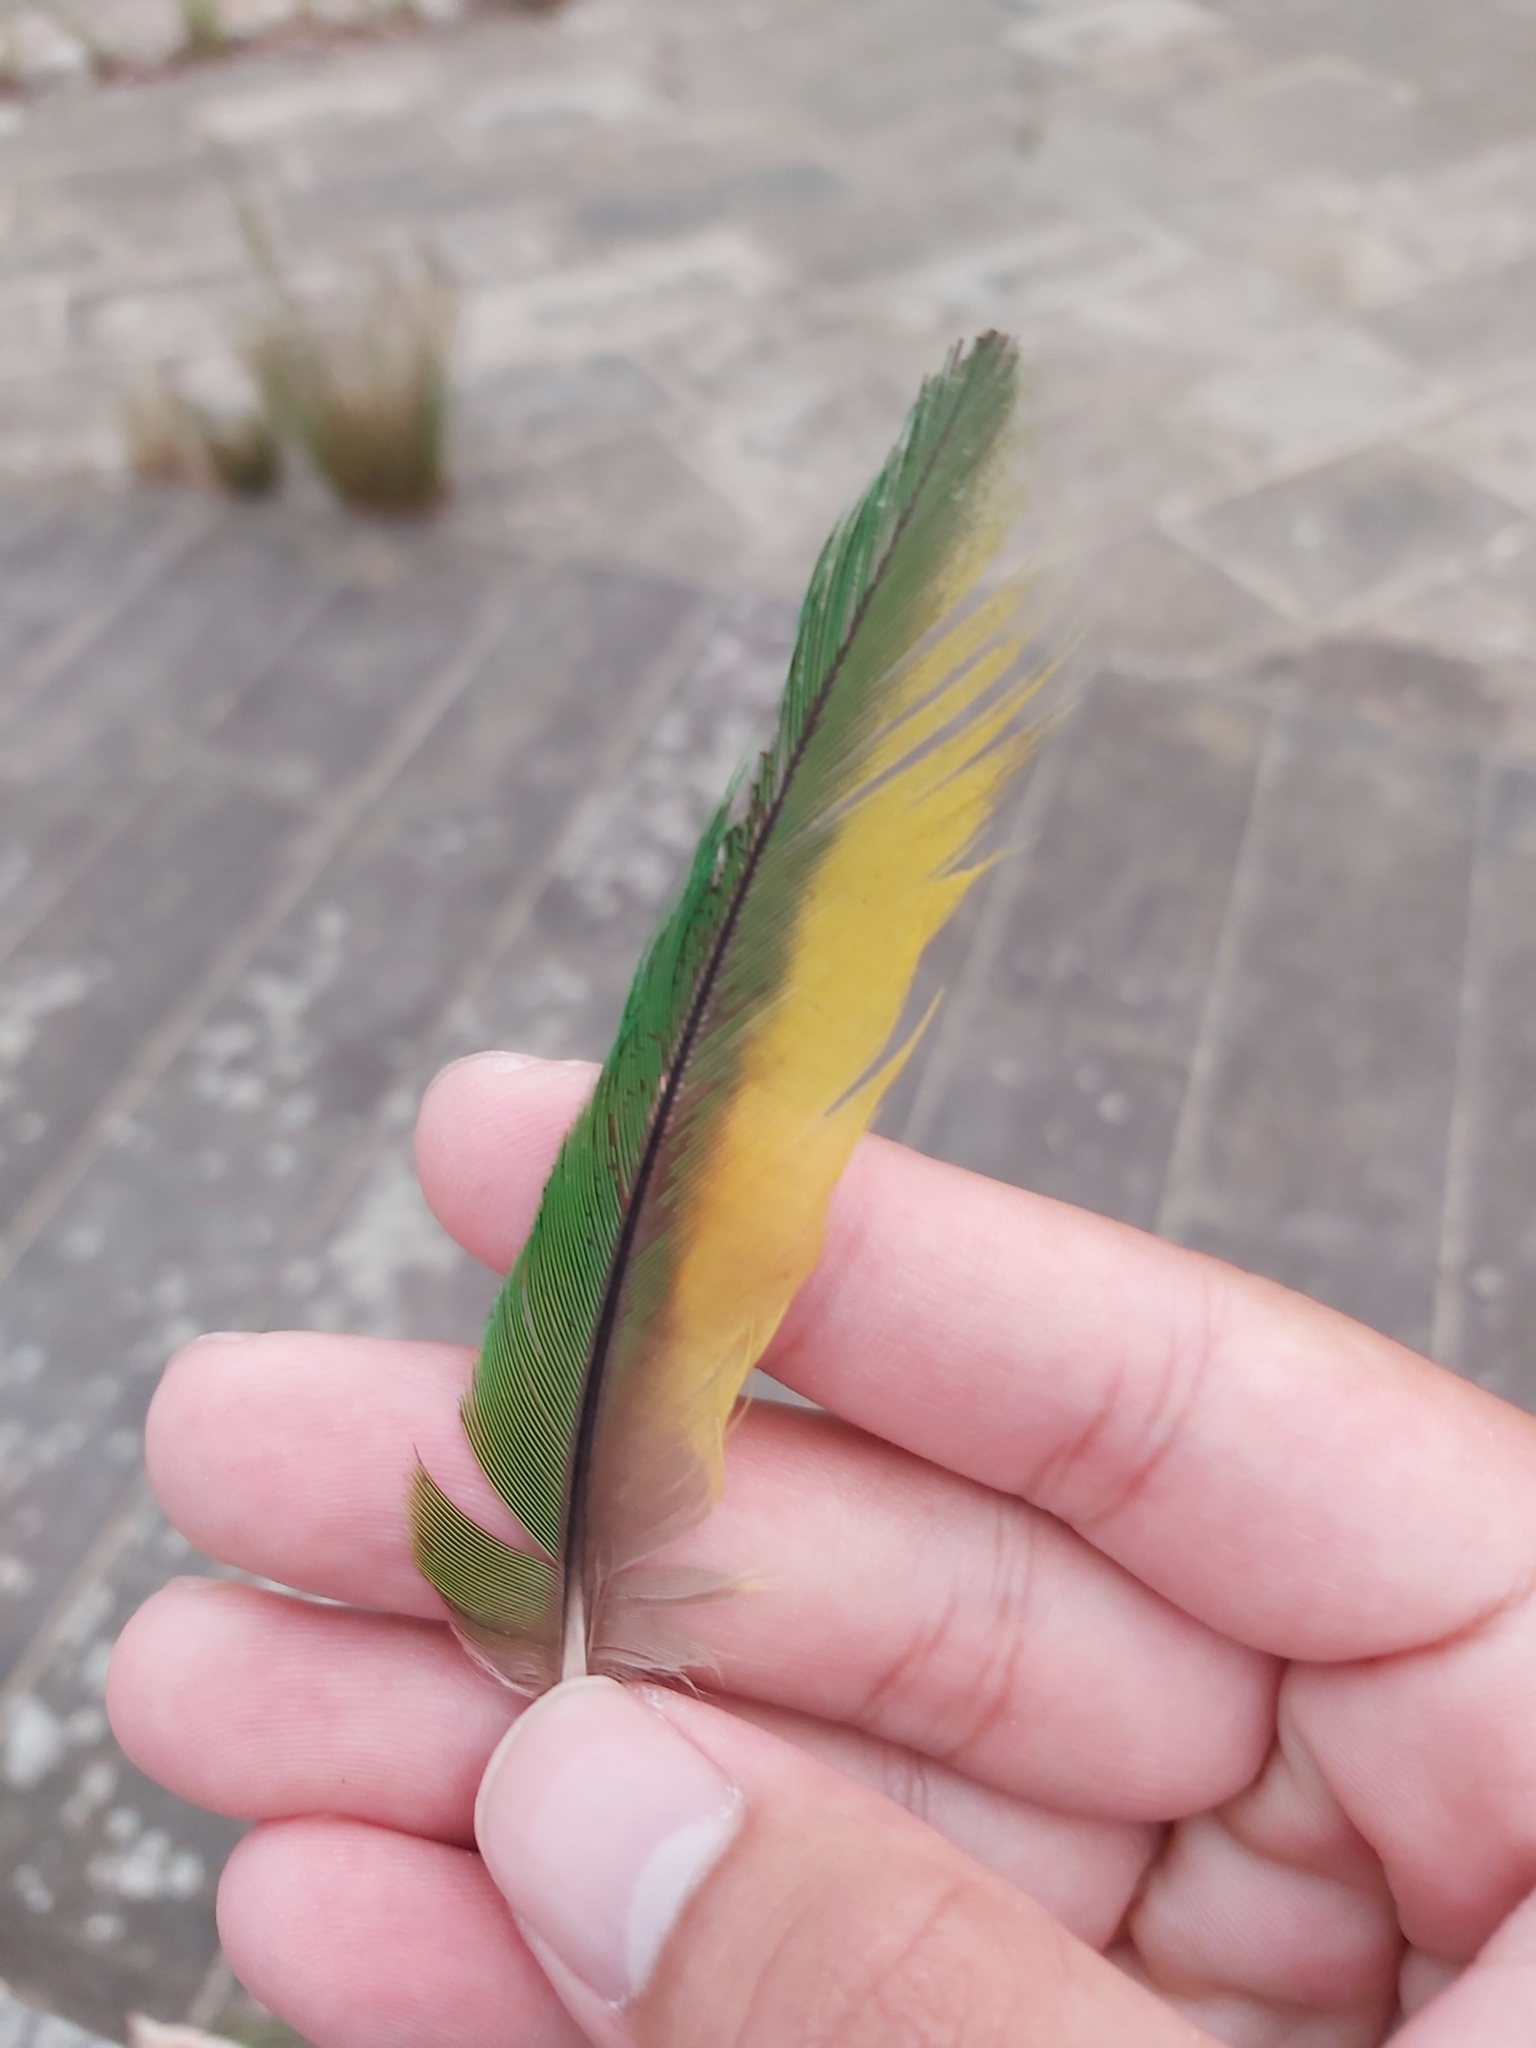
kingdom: Animalia
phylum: Chordata
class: Aves
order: Psittaciformes
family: Psittacidae
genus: Trichoglossus
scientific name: Trichoglossus haematodus
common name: Coconut lorikeet
